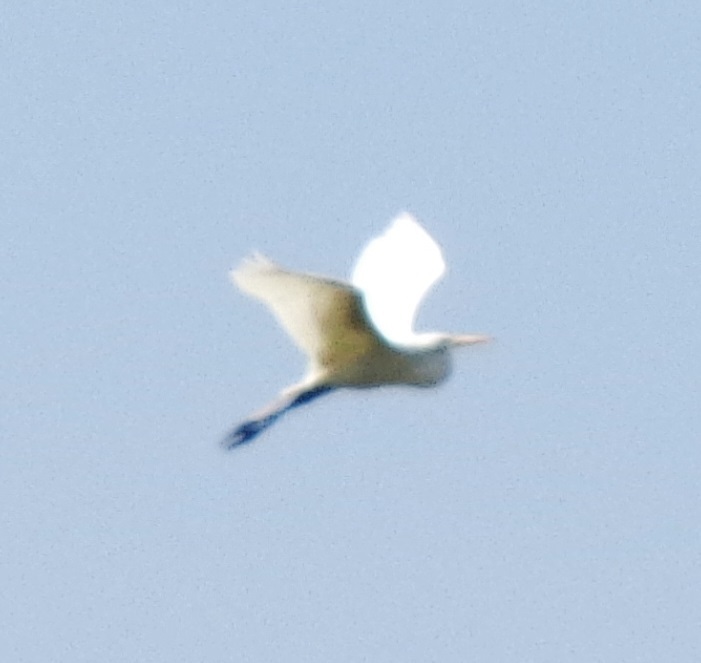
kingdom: Animalia
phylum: Chordata
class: Aves
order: Pelecaniformes
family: Ardeidae
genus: Ardea
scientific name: Ardea alba
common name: Great egret
